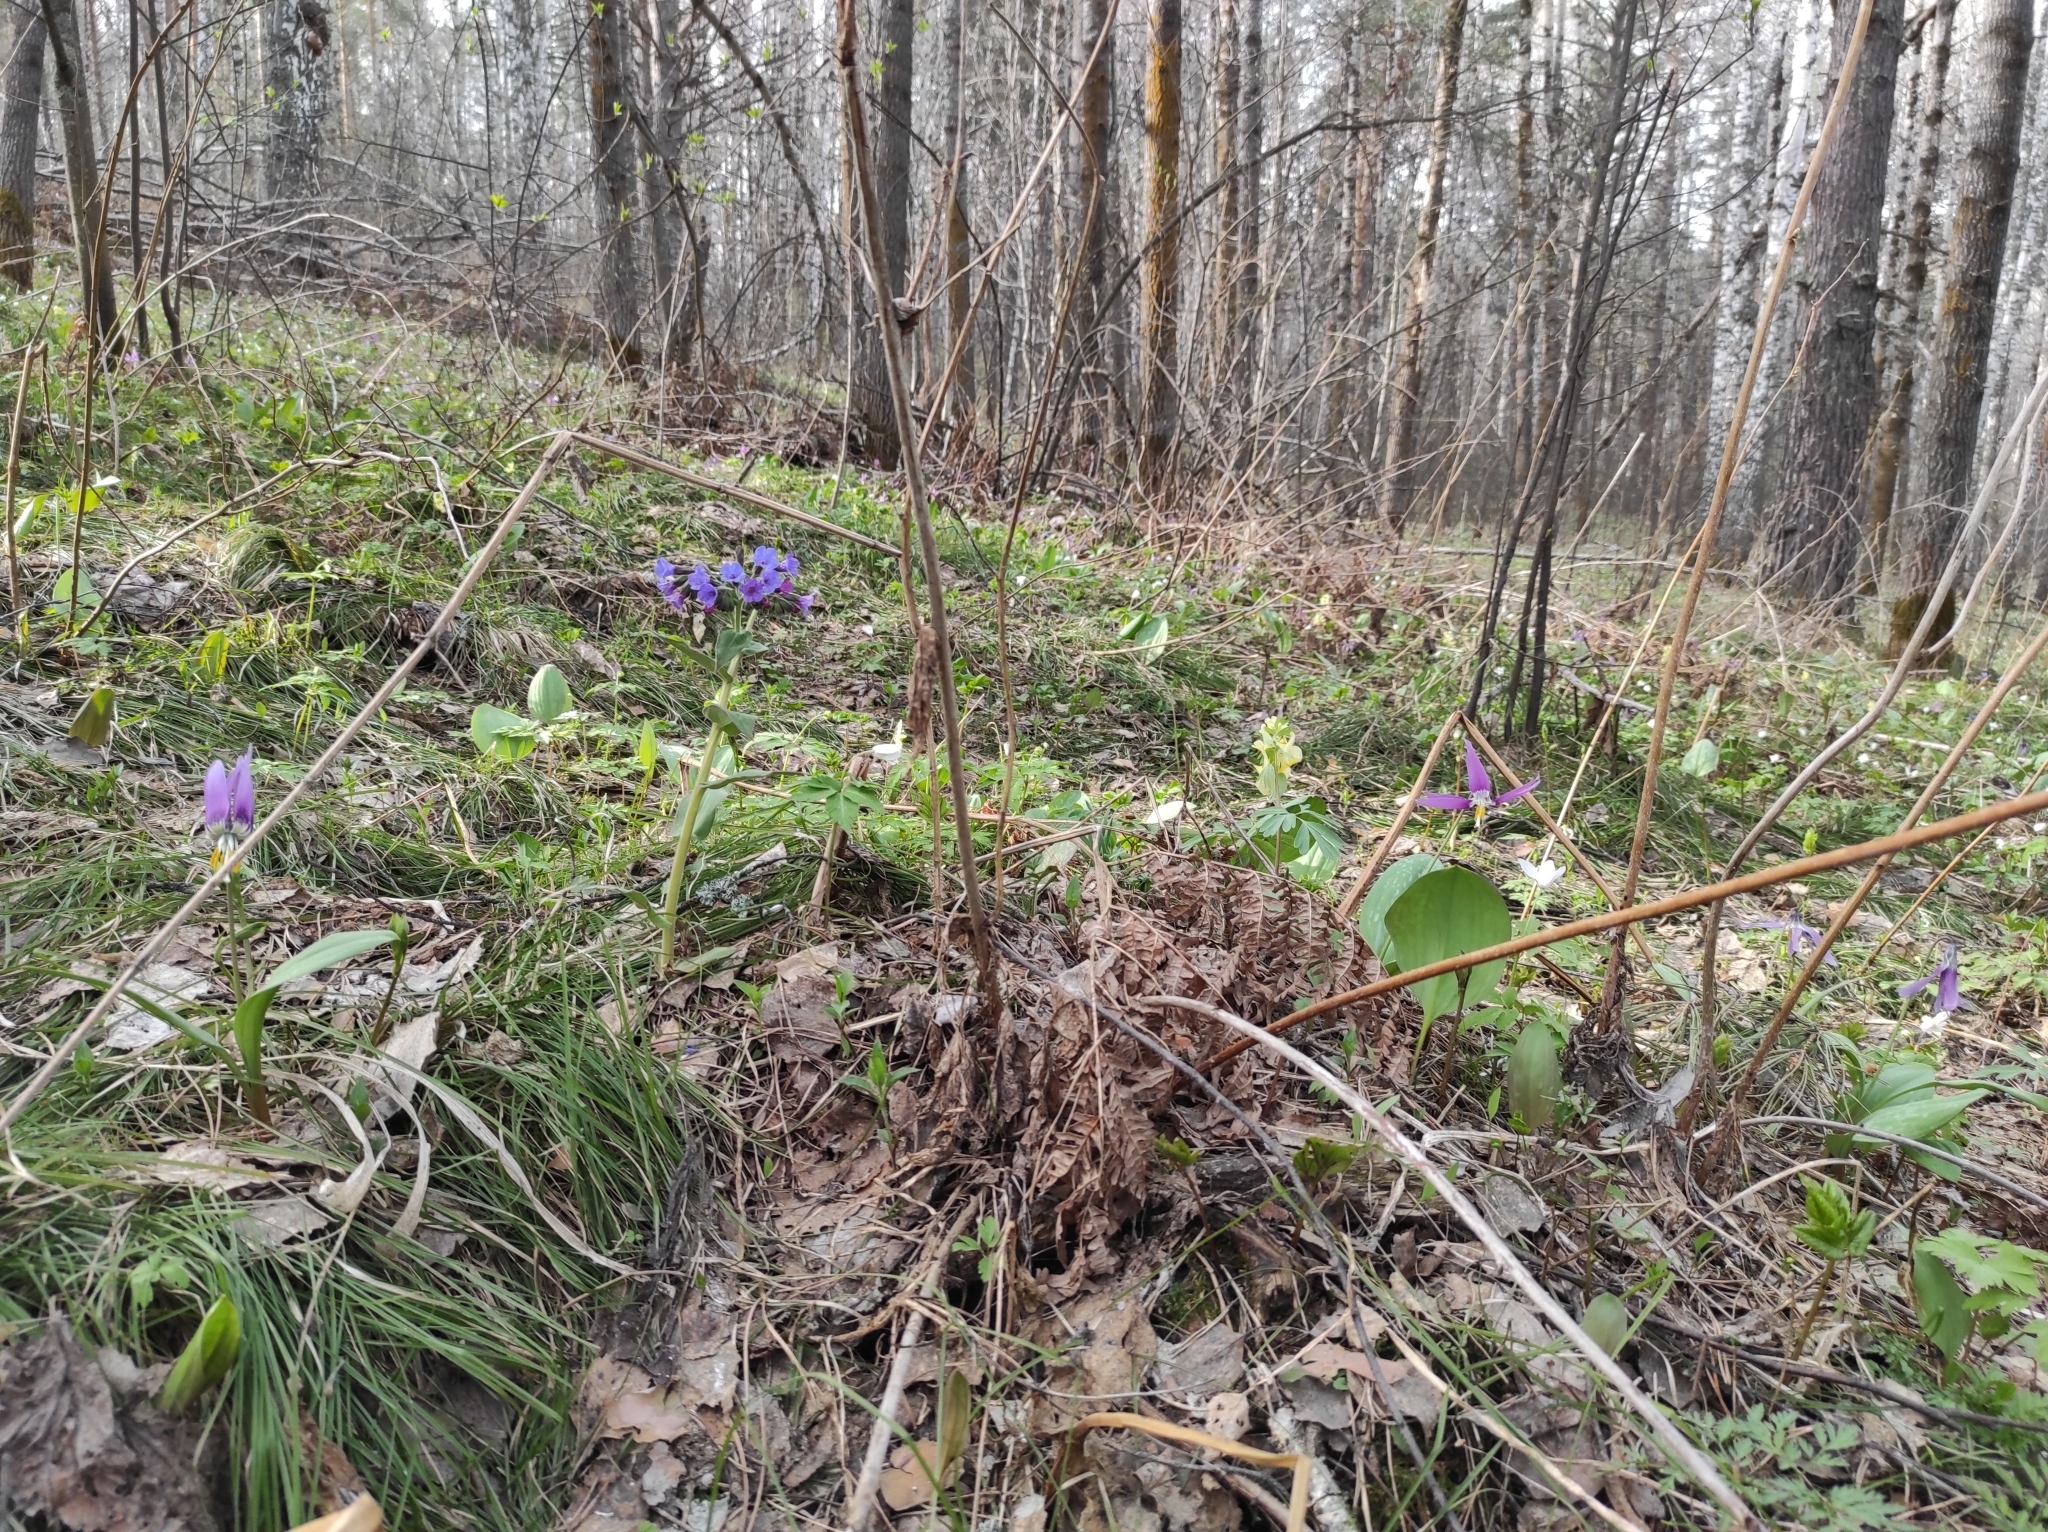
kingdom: Plantae
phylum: Tracheophyta
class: Magnoliopsida
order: Ranunculales
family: Papaveraceae
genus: Corydalis
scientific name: Corydalis bracteata
